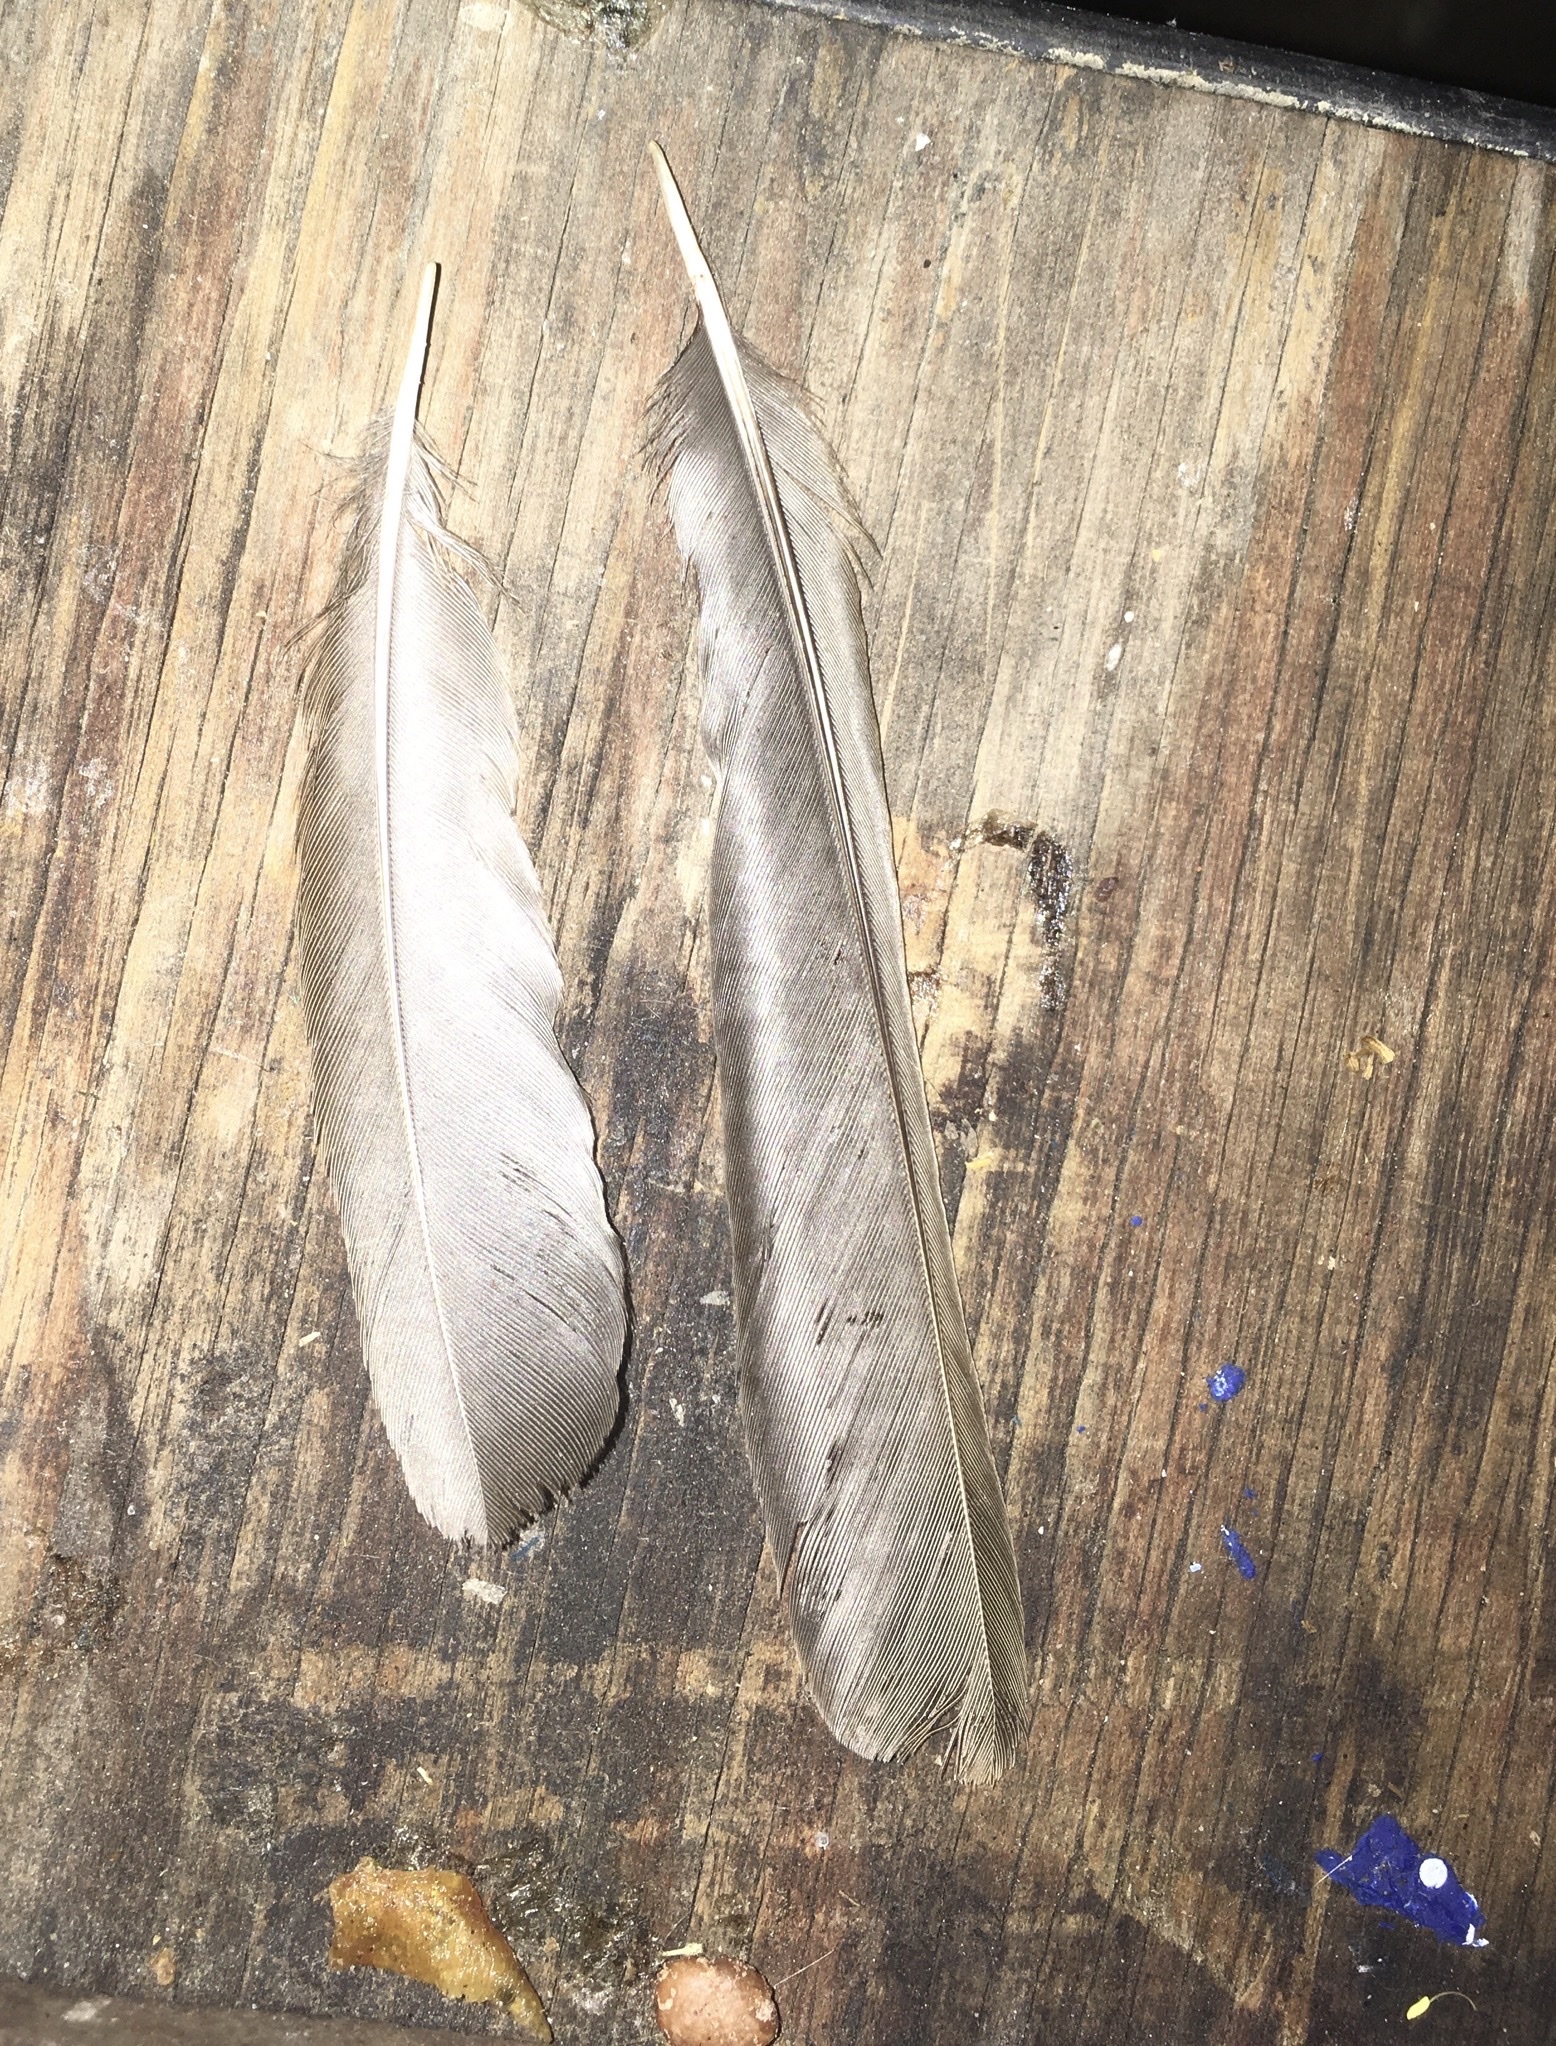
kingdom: Animalia
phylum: Chordata
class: Aves
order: Passeriformes
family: Passerellidae
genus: Melozone
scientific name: Melozone crissalis
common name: California towhee
